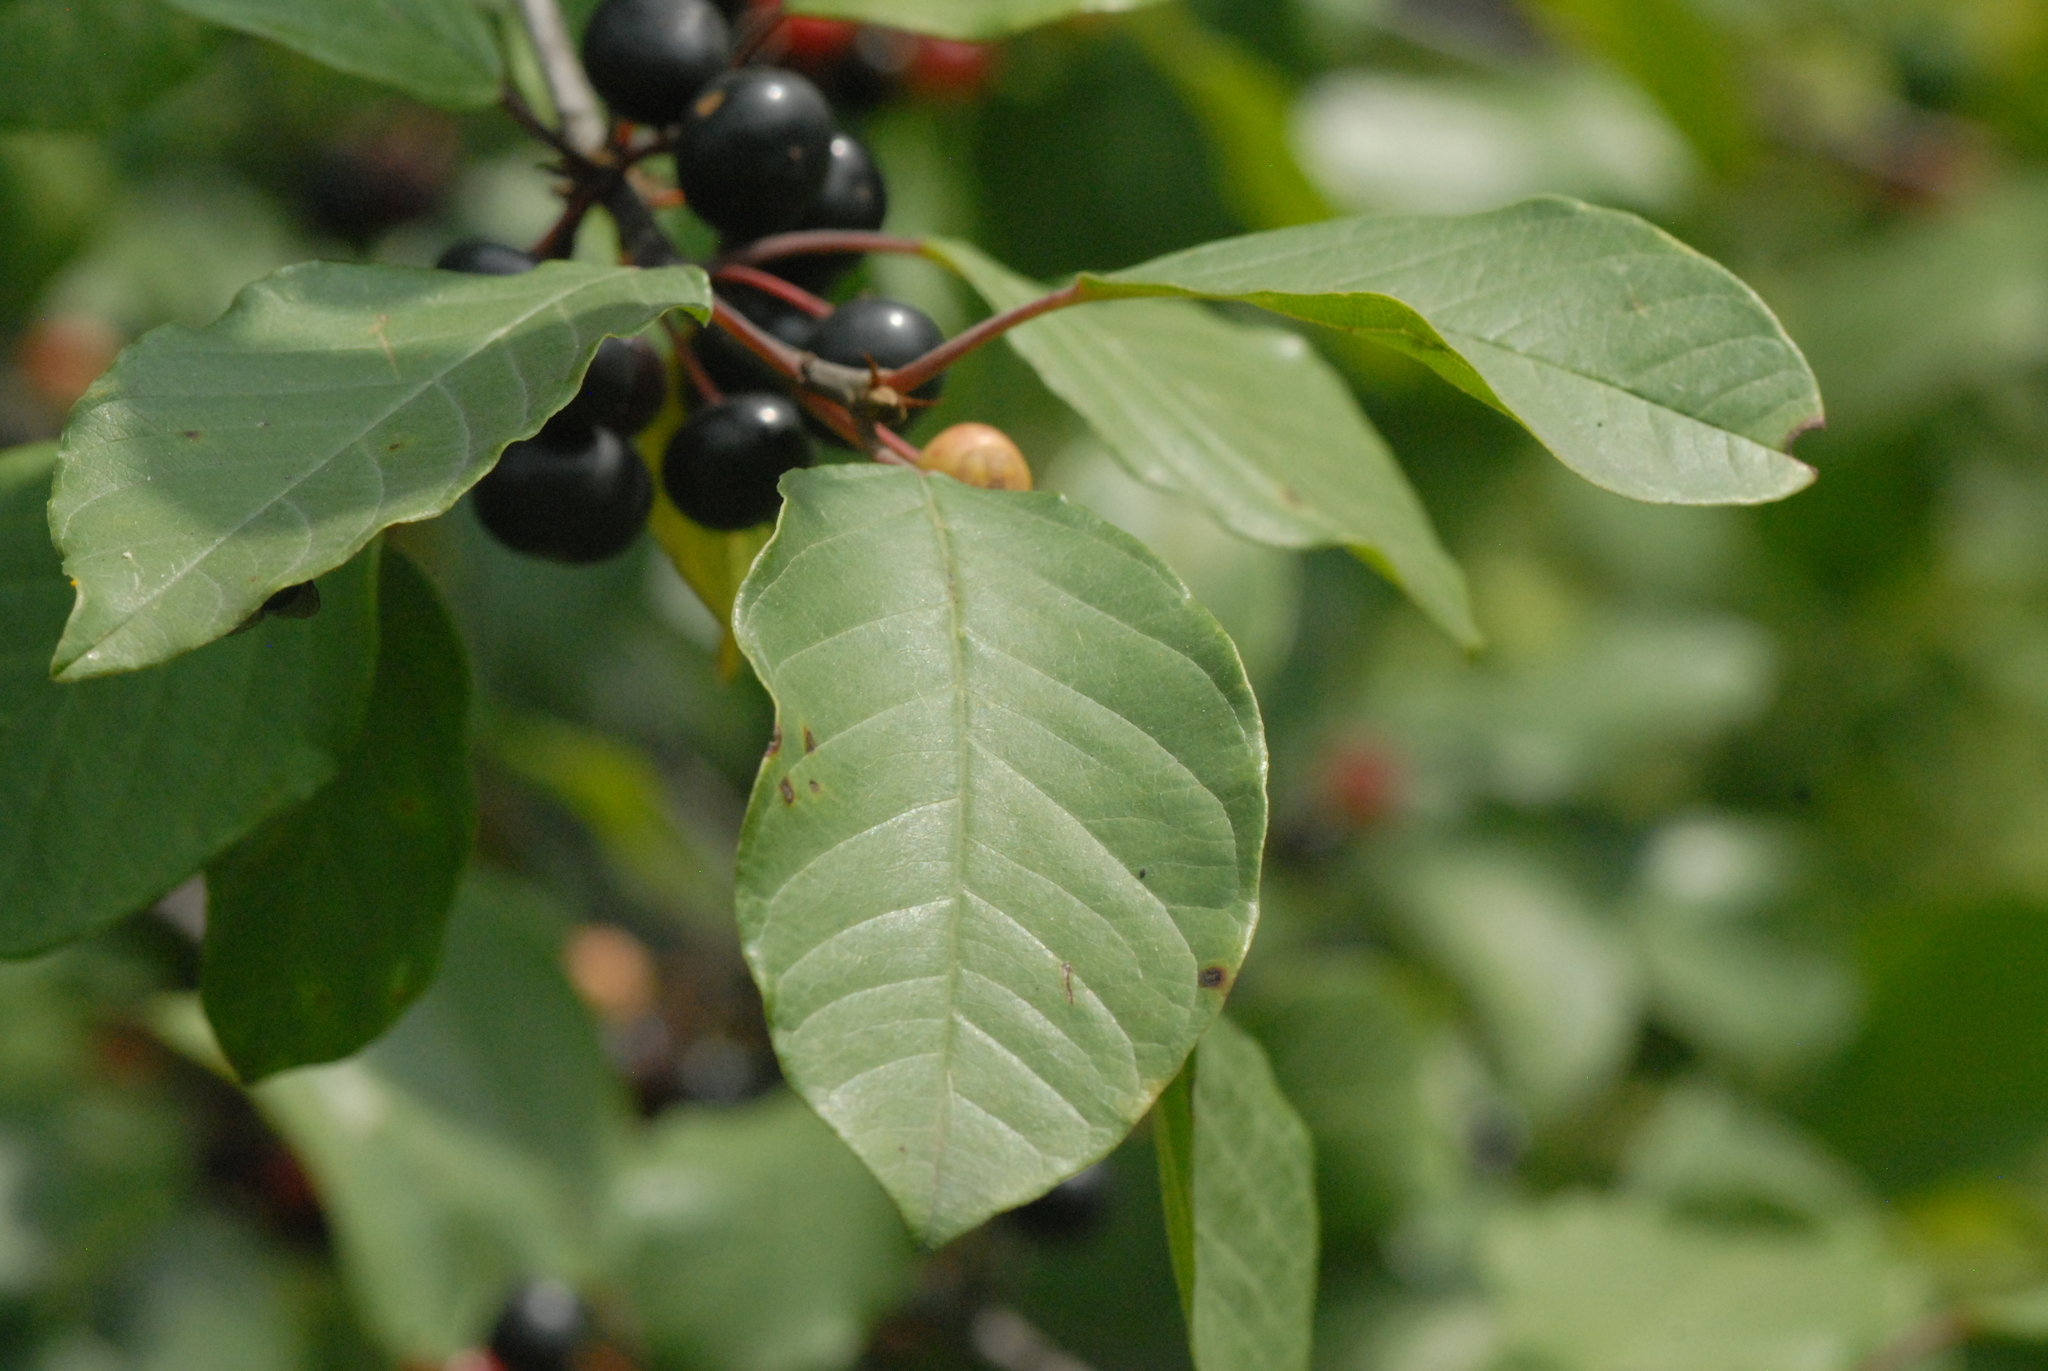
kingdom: Plantae
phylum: Tracheophyta
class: Magnoliopsida
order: Rosales
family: Rhamnaceae
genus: Frangula
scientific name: Frangula alnus
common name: Alder buckthorn
